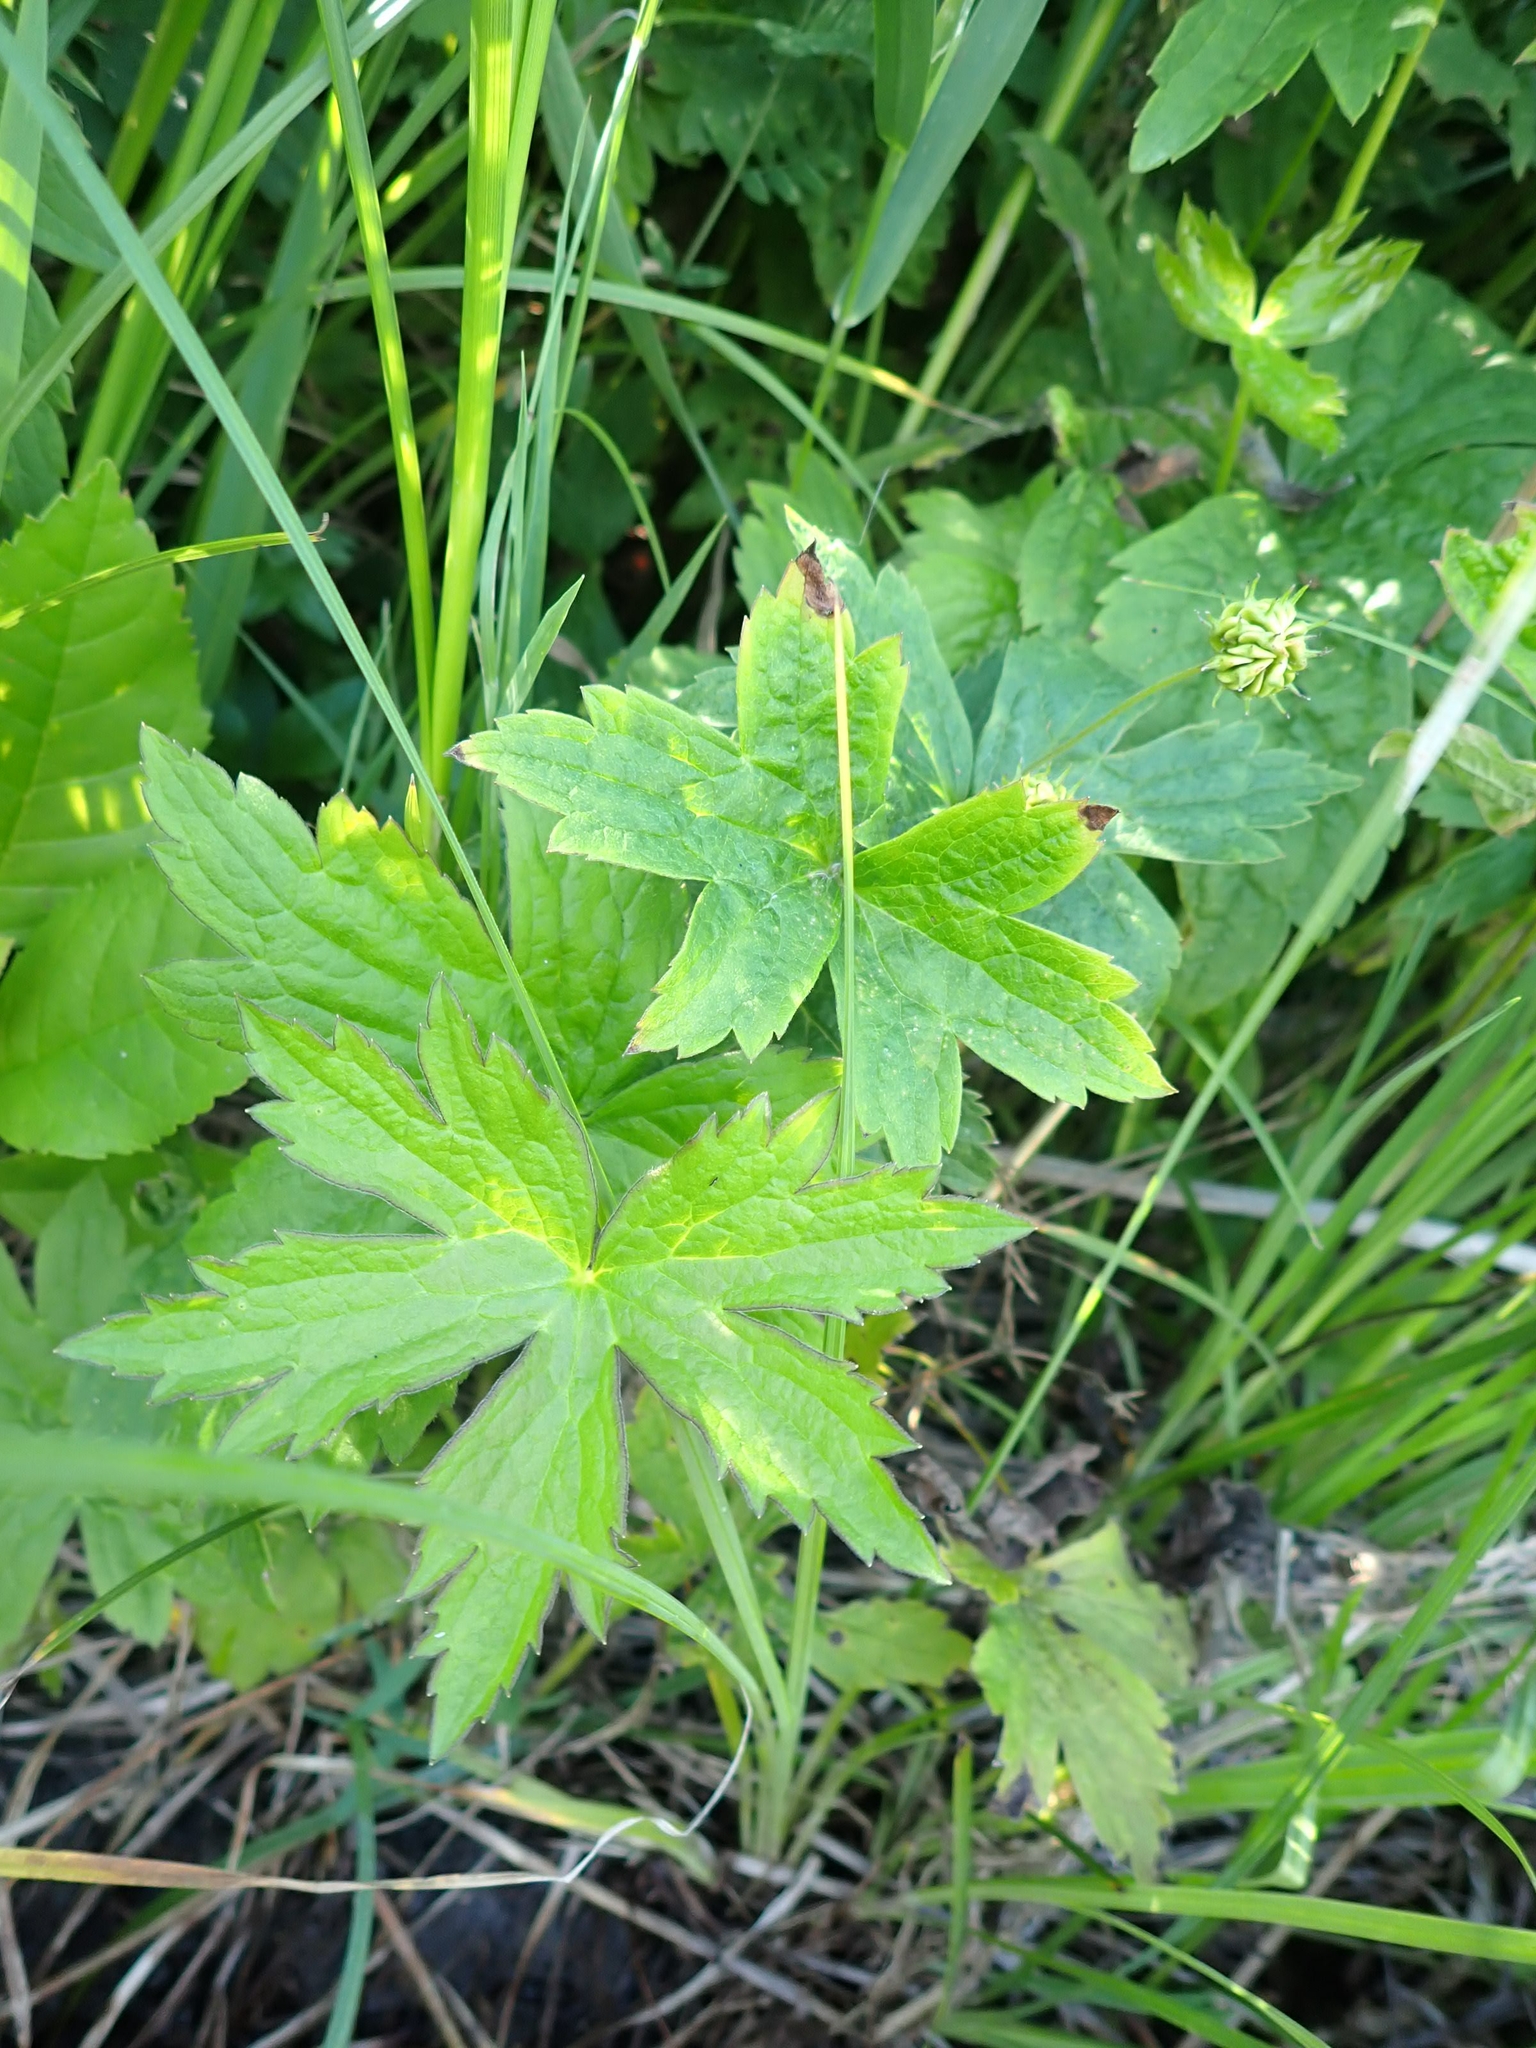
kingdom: Plantae
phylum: Tracheophyta
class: Magnoliopsida
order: Ranunculales
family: Ranunculaceae
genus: Anemonastrum
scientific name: Anemonastrum canadense
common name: Canada anemone
